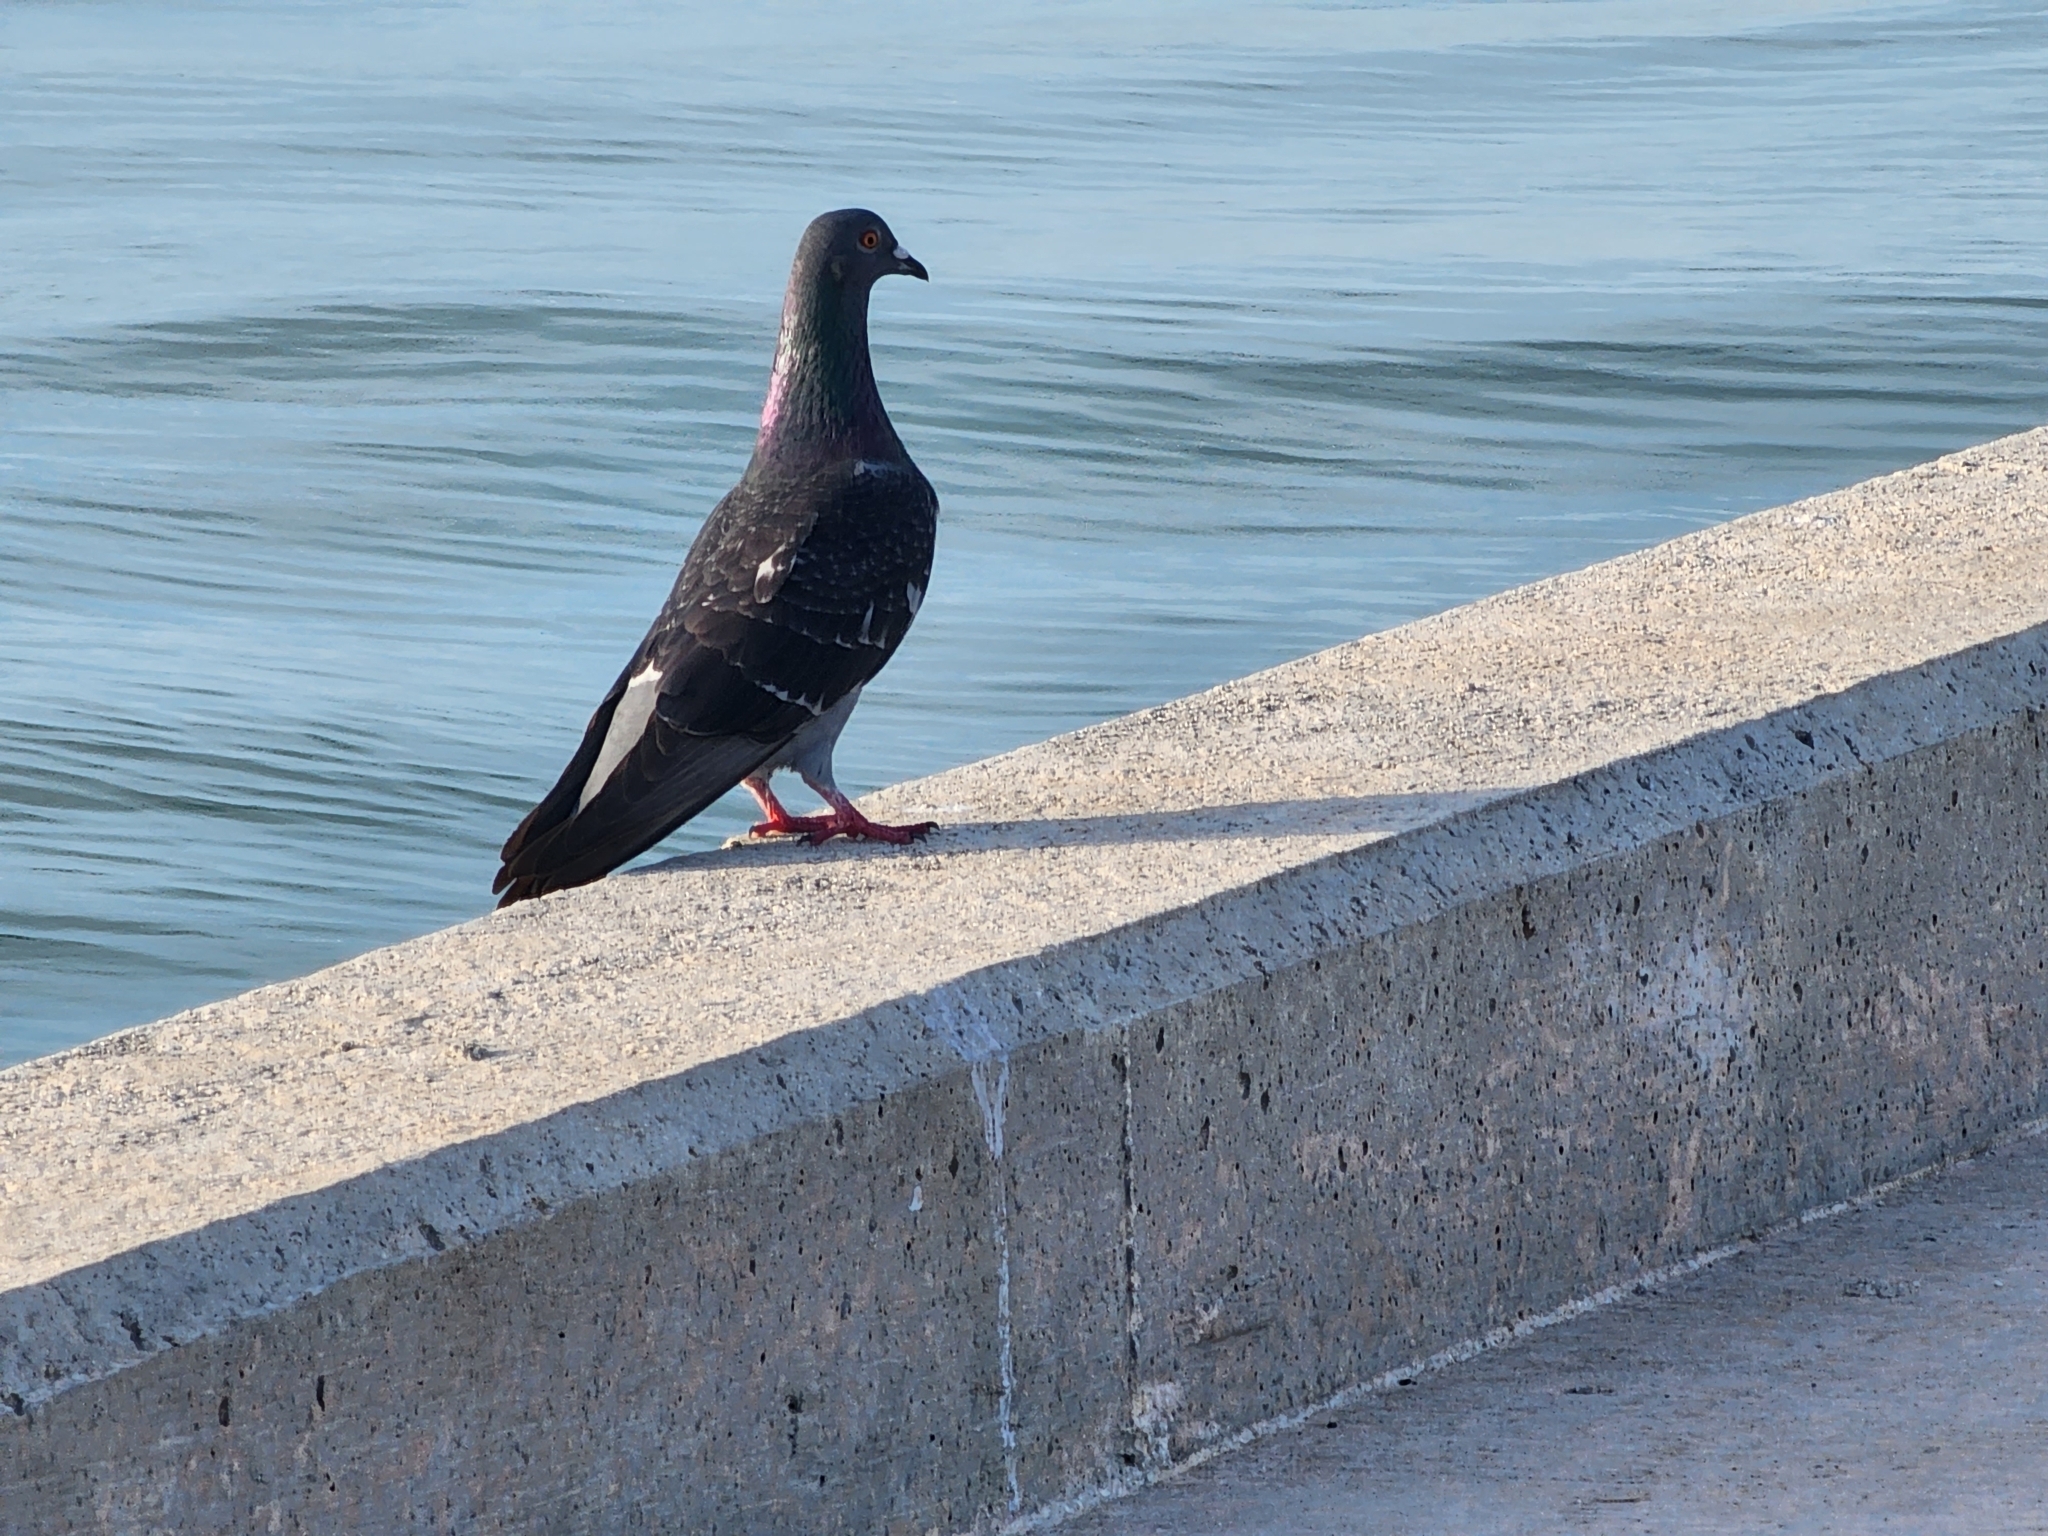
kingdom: Animalia
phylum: Chordata
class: Aves
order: Columbiformes
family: Columbidae
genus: Columba
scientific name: Columba livia
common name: Rock pigeon
